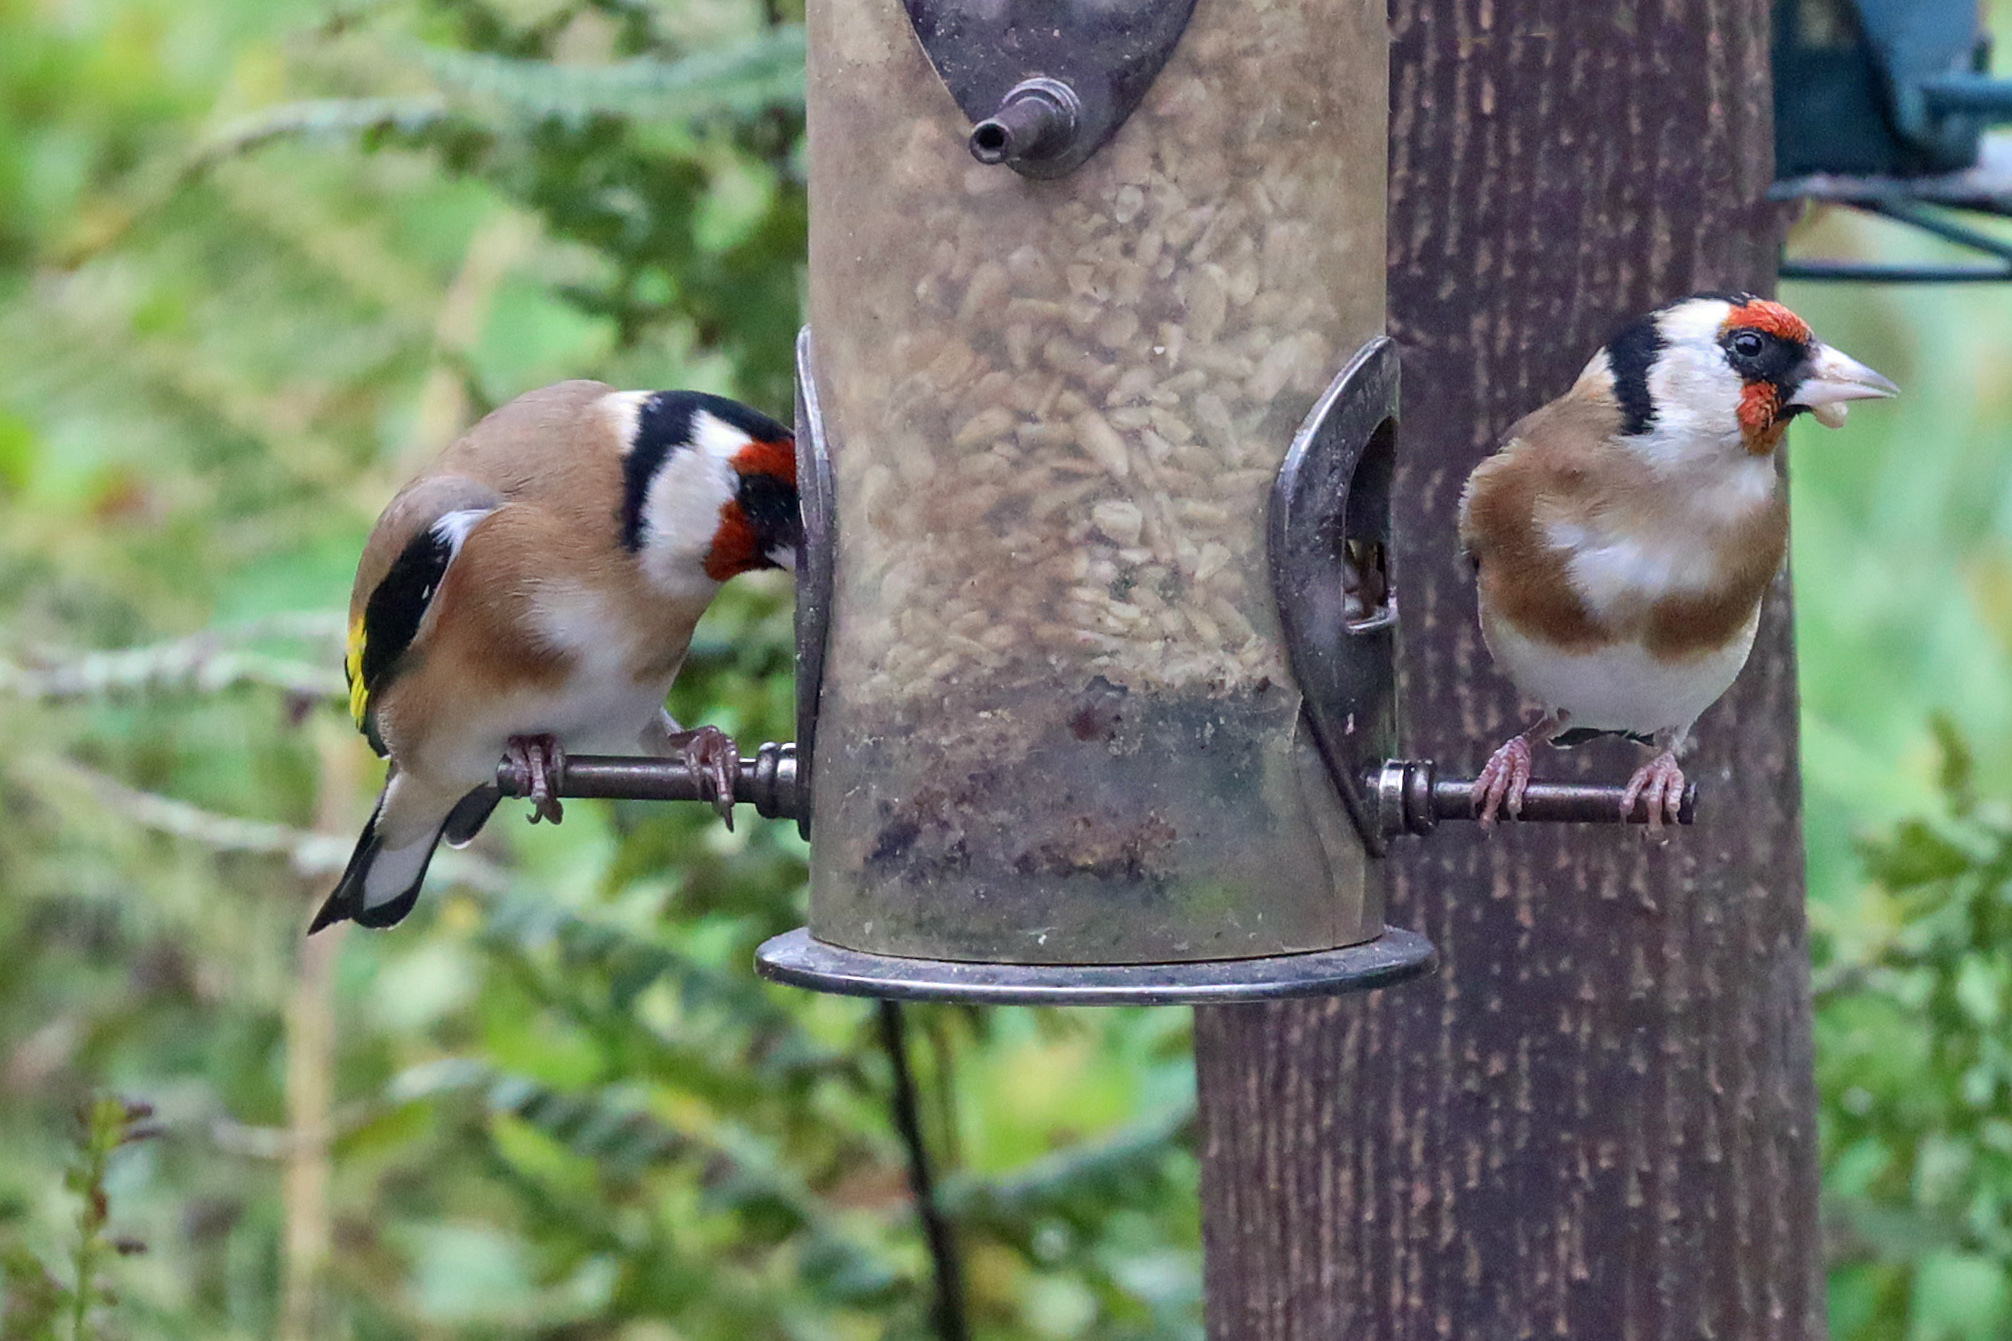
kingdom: Animalia
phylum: Chordata
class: Aves
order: Passeriformes
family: Fringillidae
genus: Carduelis
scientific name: Carduelis carduelis
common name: European goldfinch
